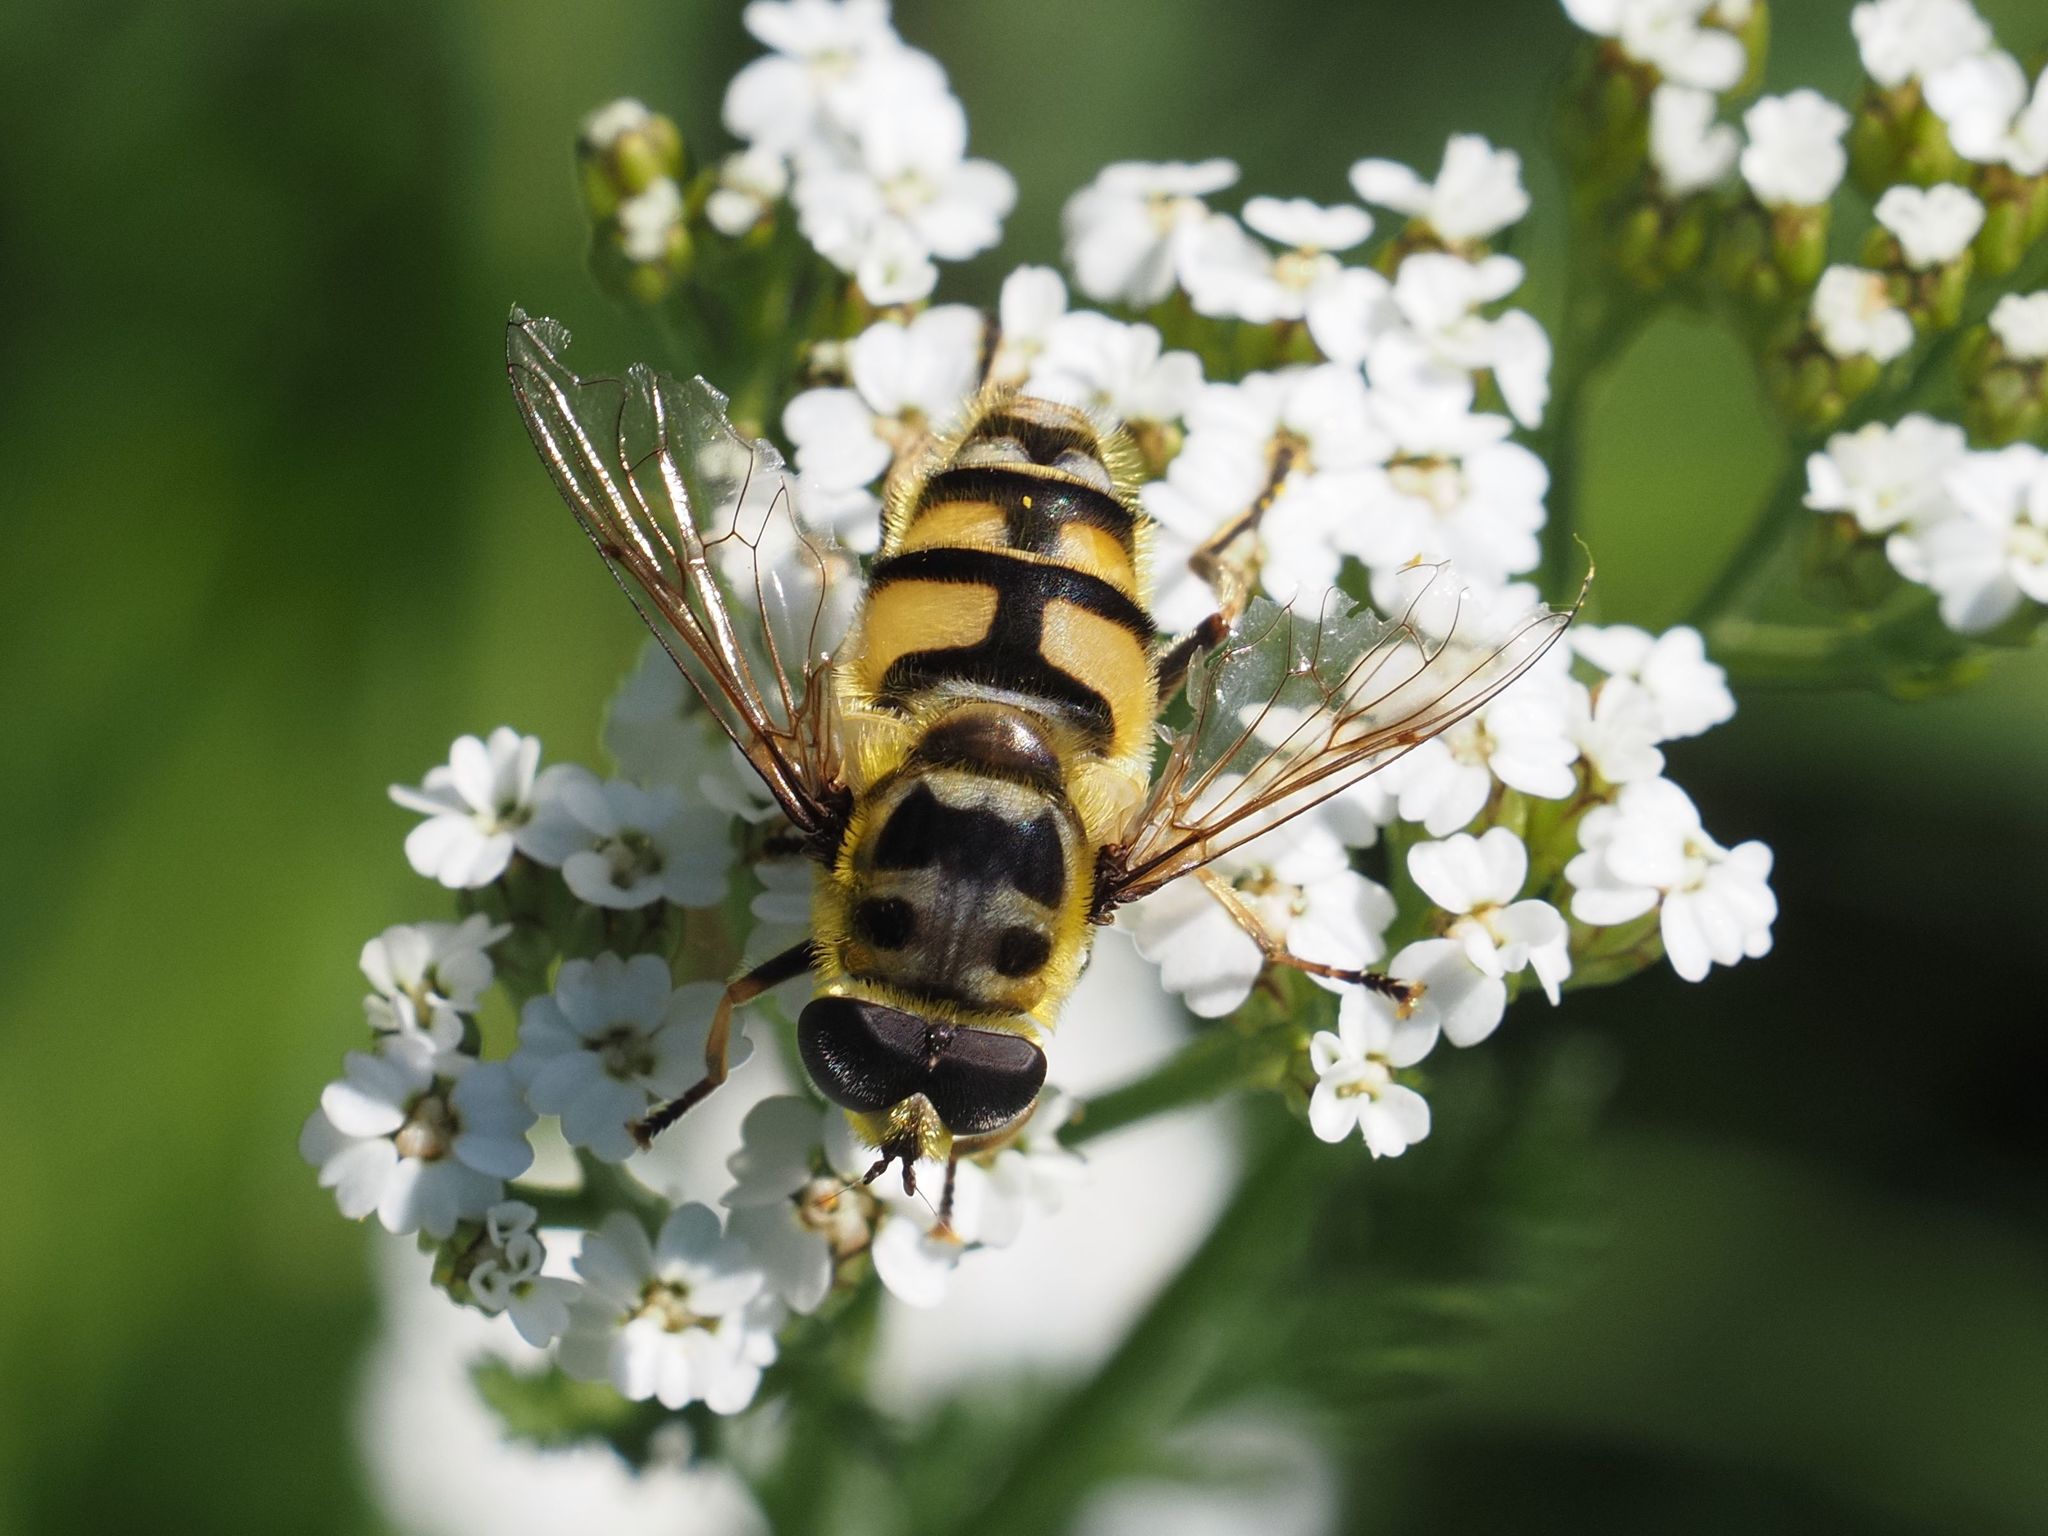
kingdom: Animalia
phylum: Arthropoda
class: Insecta
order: Diptera
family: Syrphidae
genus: Myathropa
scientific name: Myathropa florea
